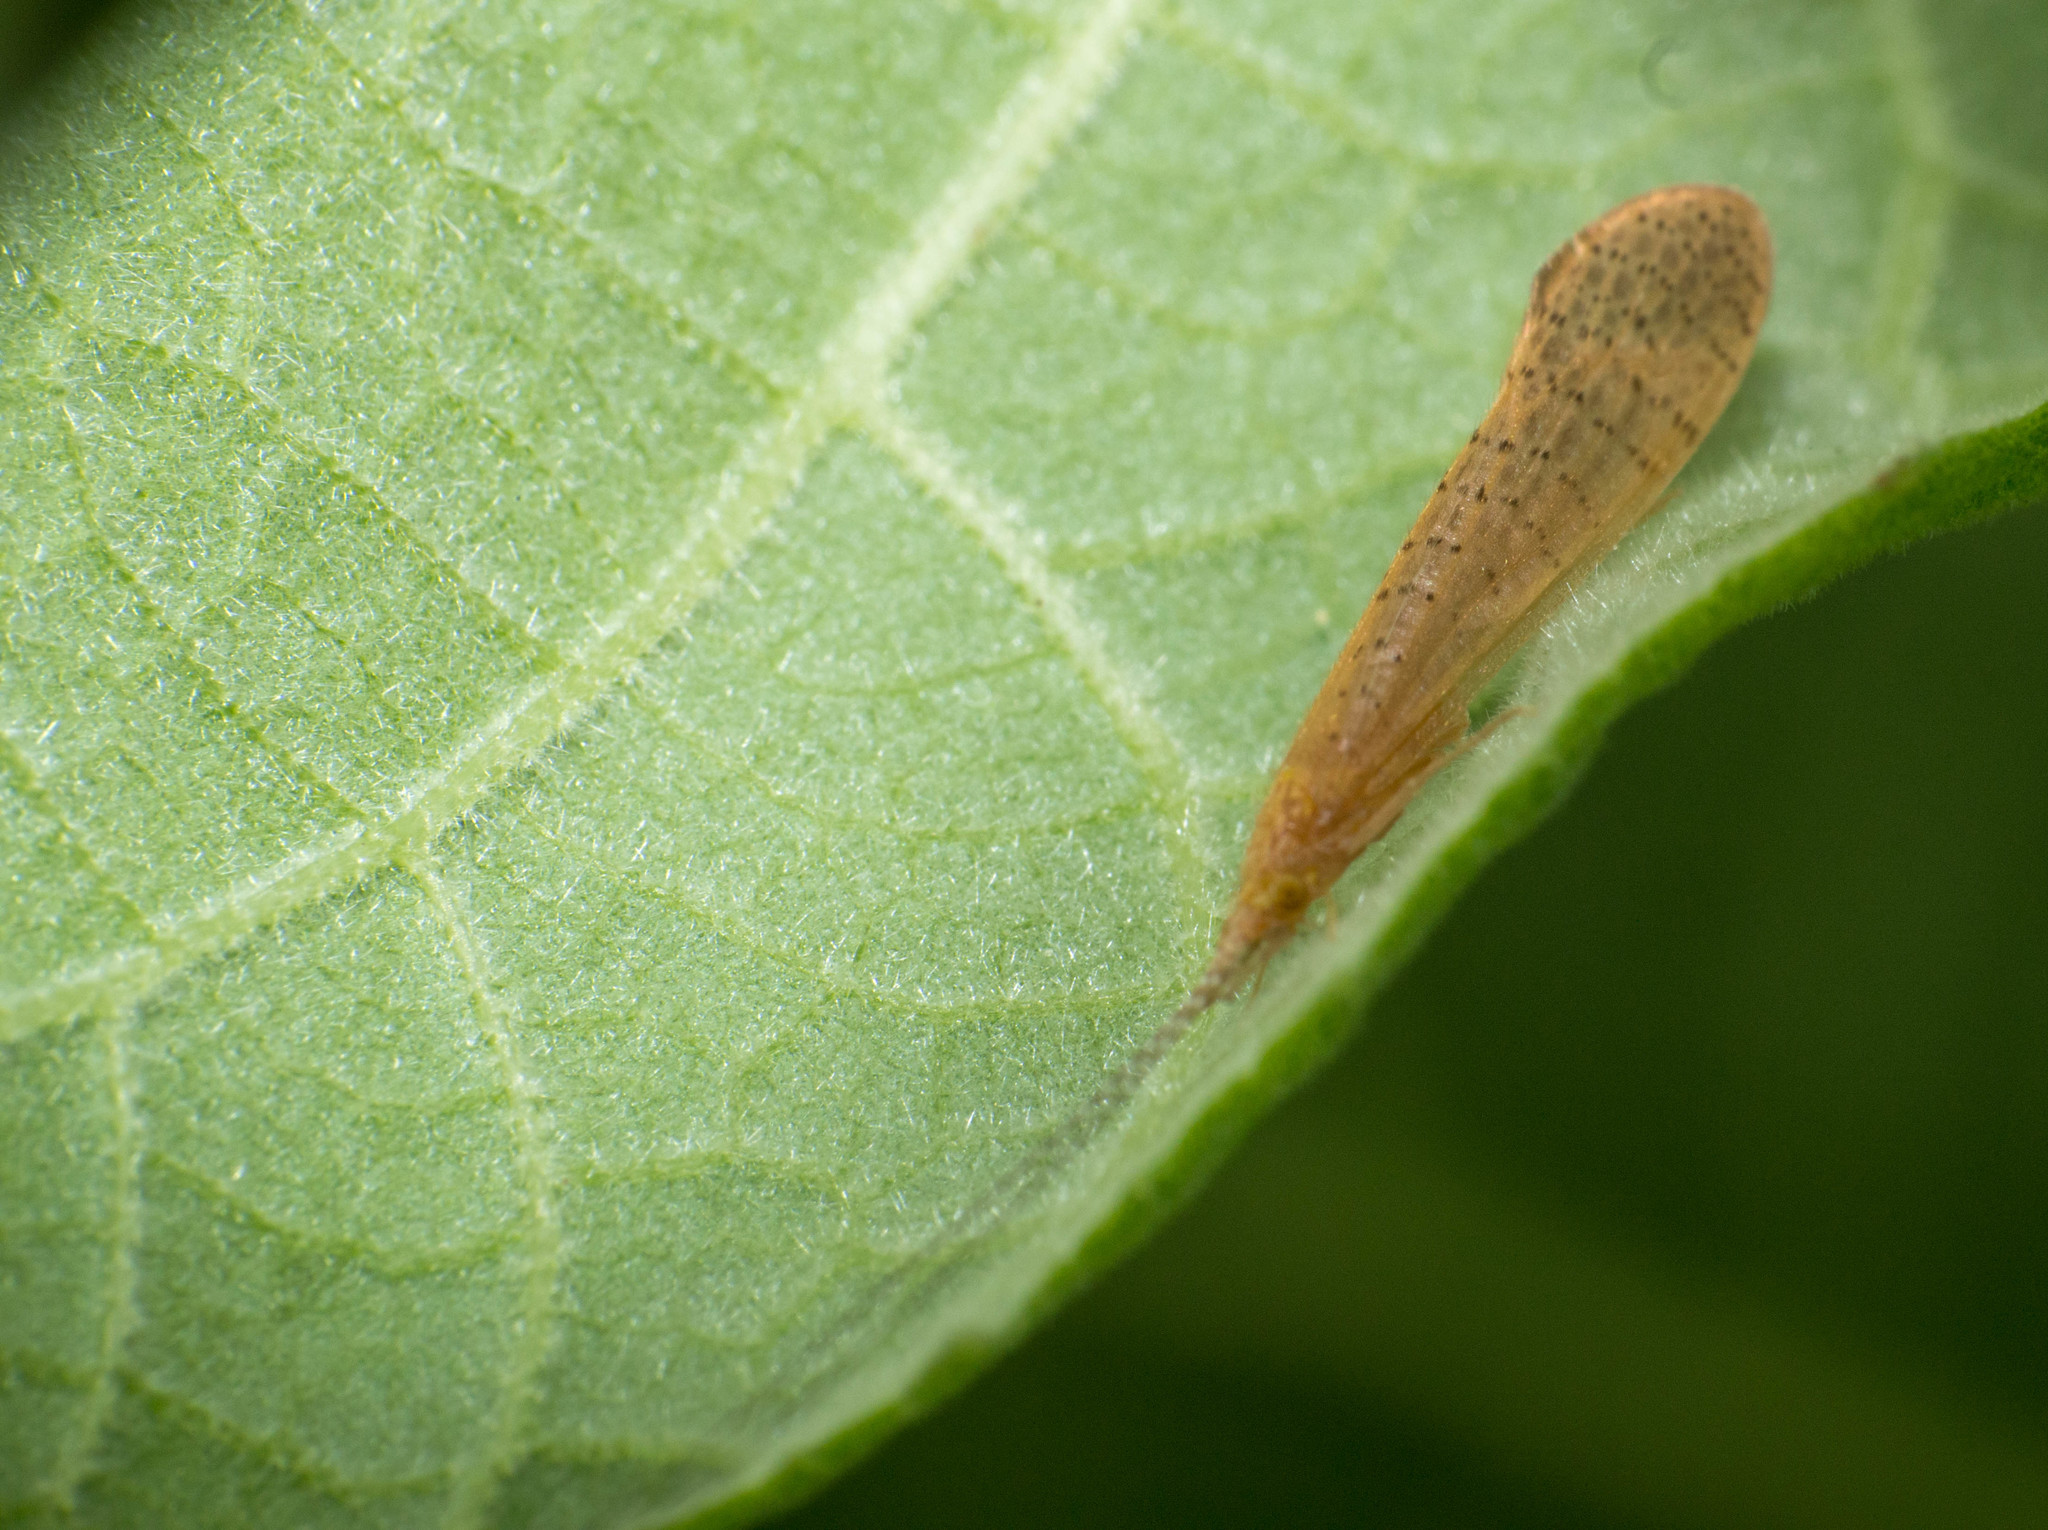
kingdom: Animalia
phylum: Arthropoda
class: Insecta
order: Trichoptera
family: Leptoceridae
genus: Nectopsyche
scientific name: Nectopsyche muhni
